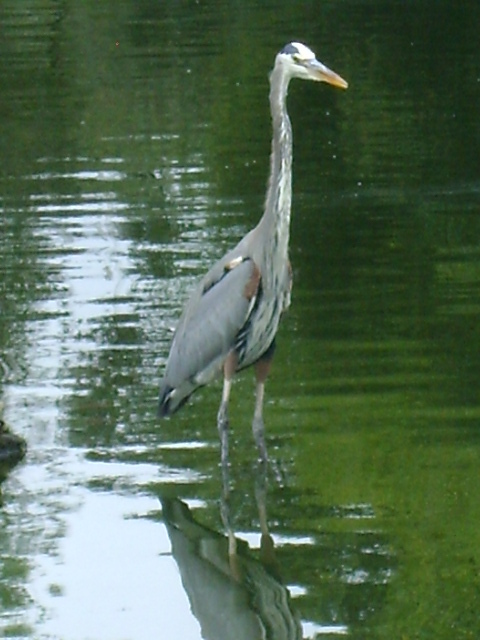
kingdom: Animalia
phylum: Chordata
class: Aves
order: Pelecaniformes
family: Ardeidae
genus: Ardea
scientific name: Ardea herodias
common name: Great blue heron
